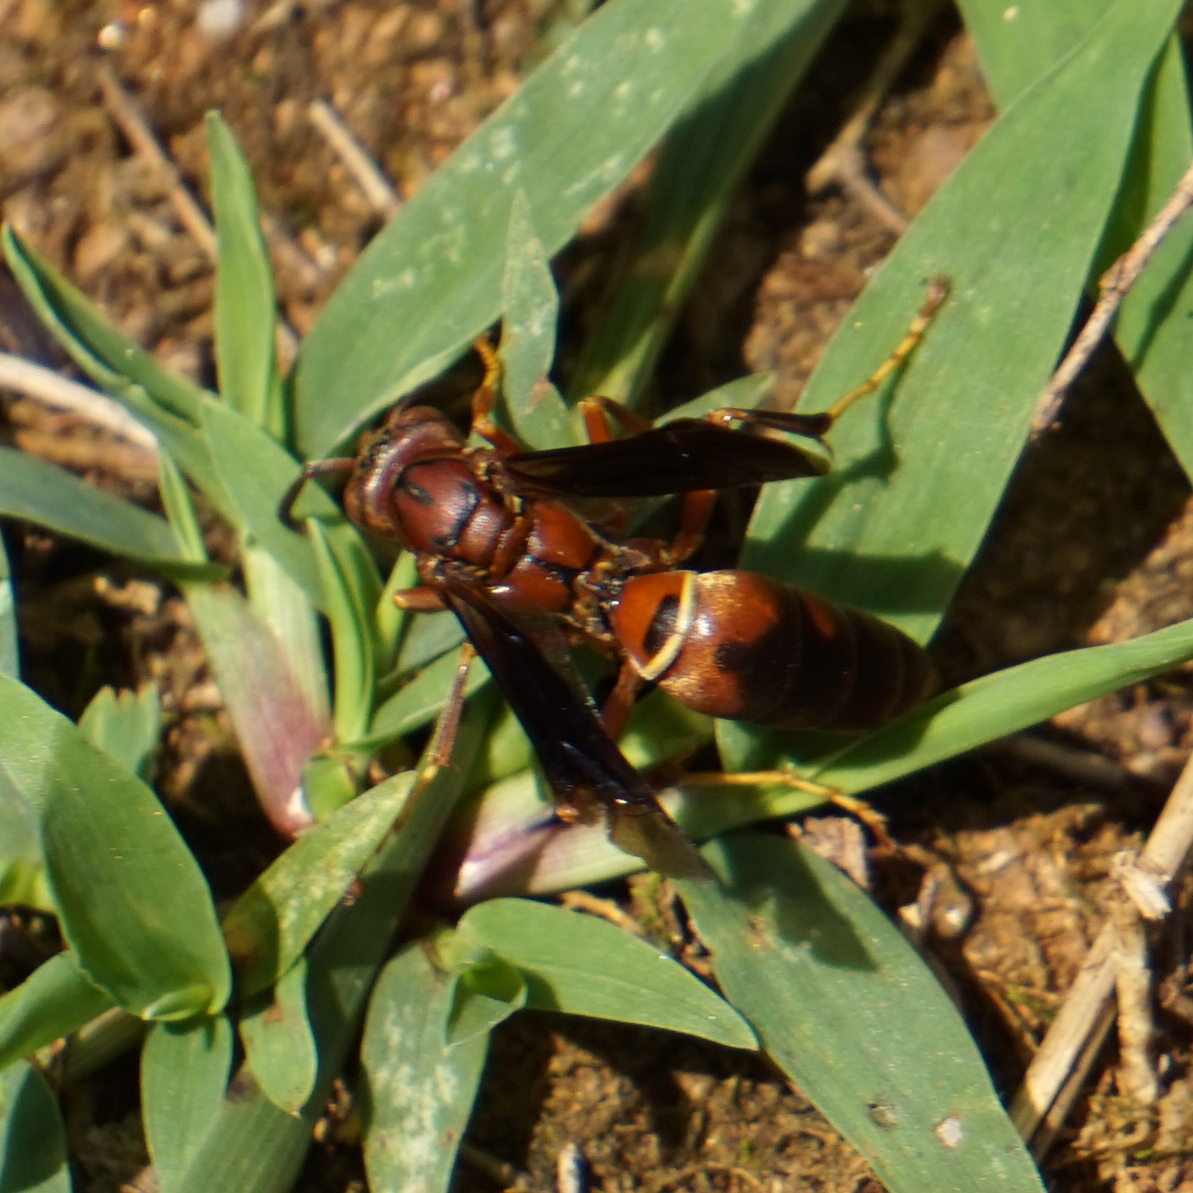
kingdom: Animalia
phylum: Arthropoda
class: Insecta
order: Hymenoptera
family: Vespidae
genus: Fuscopolistes
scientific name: Fuscopolistes
